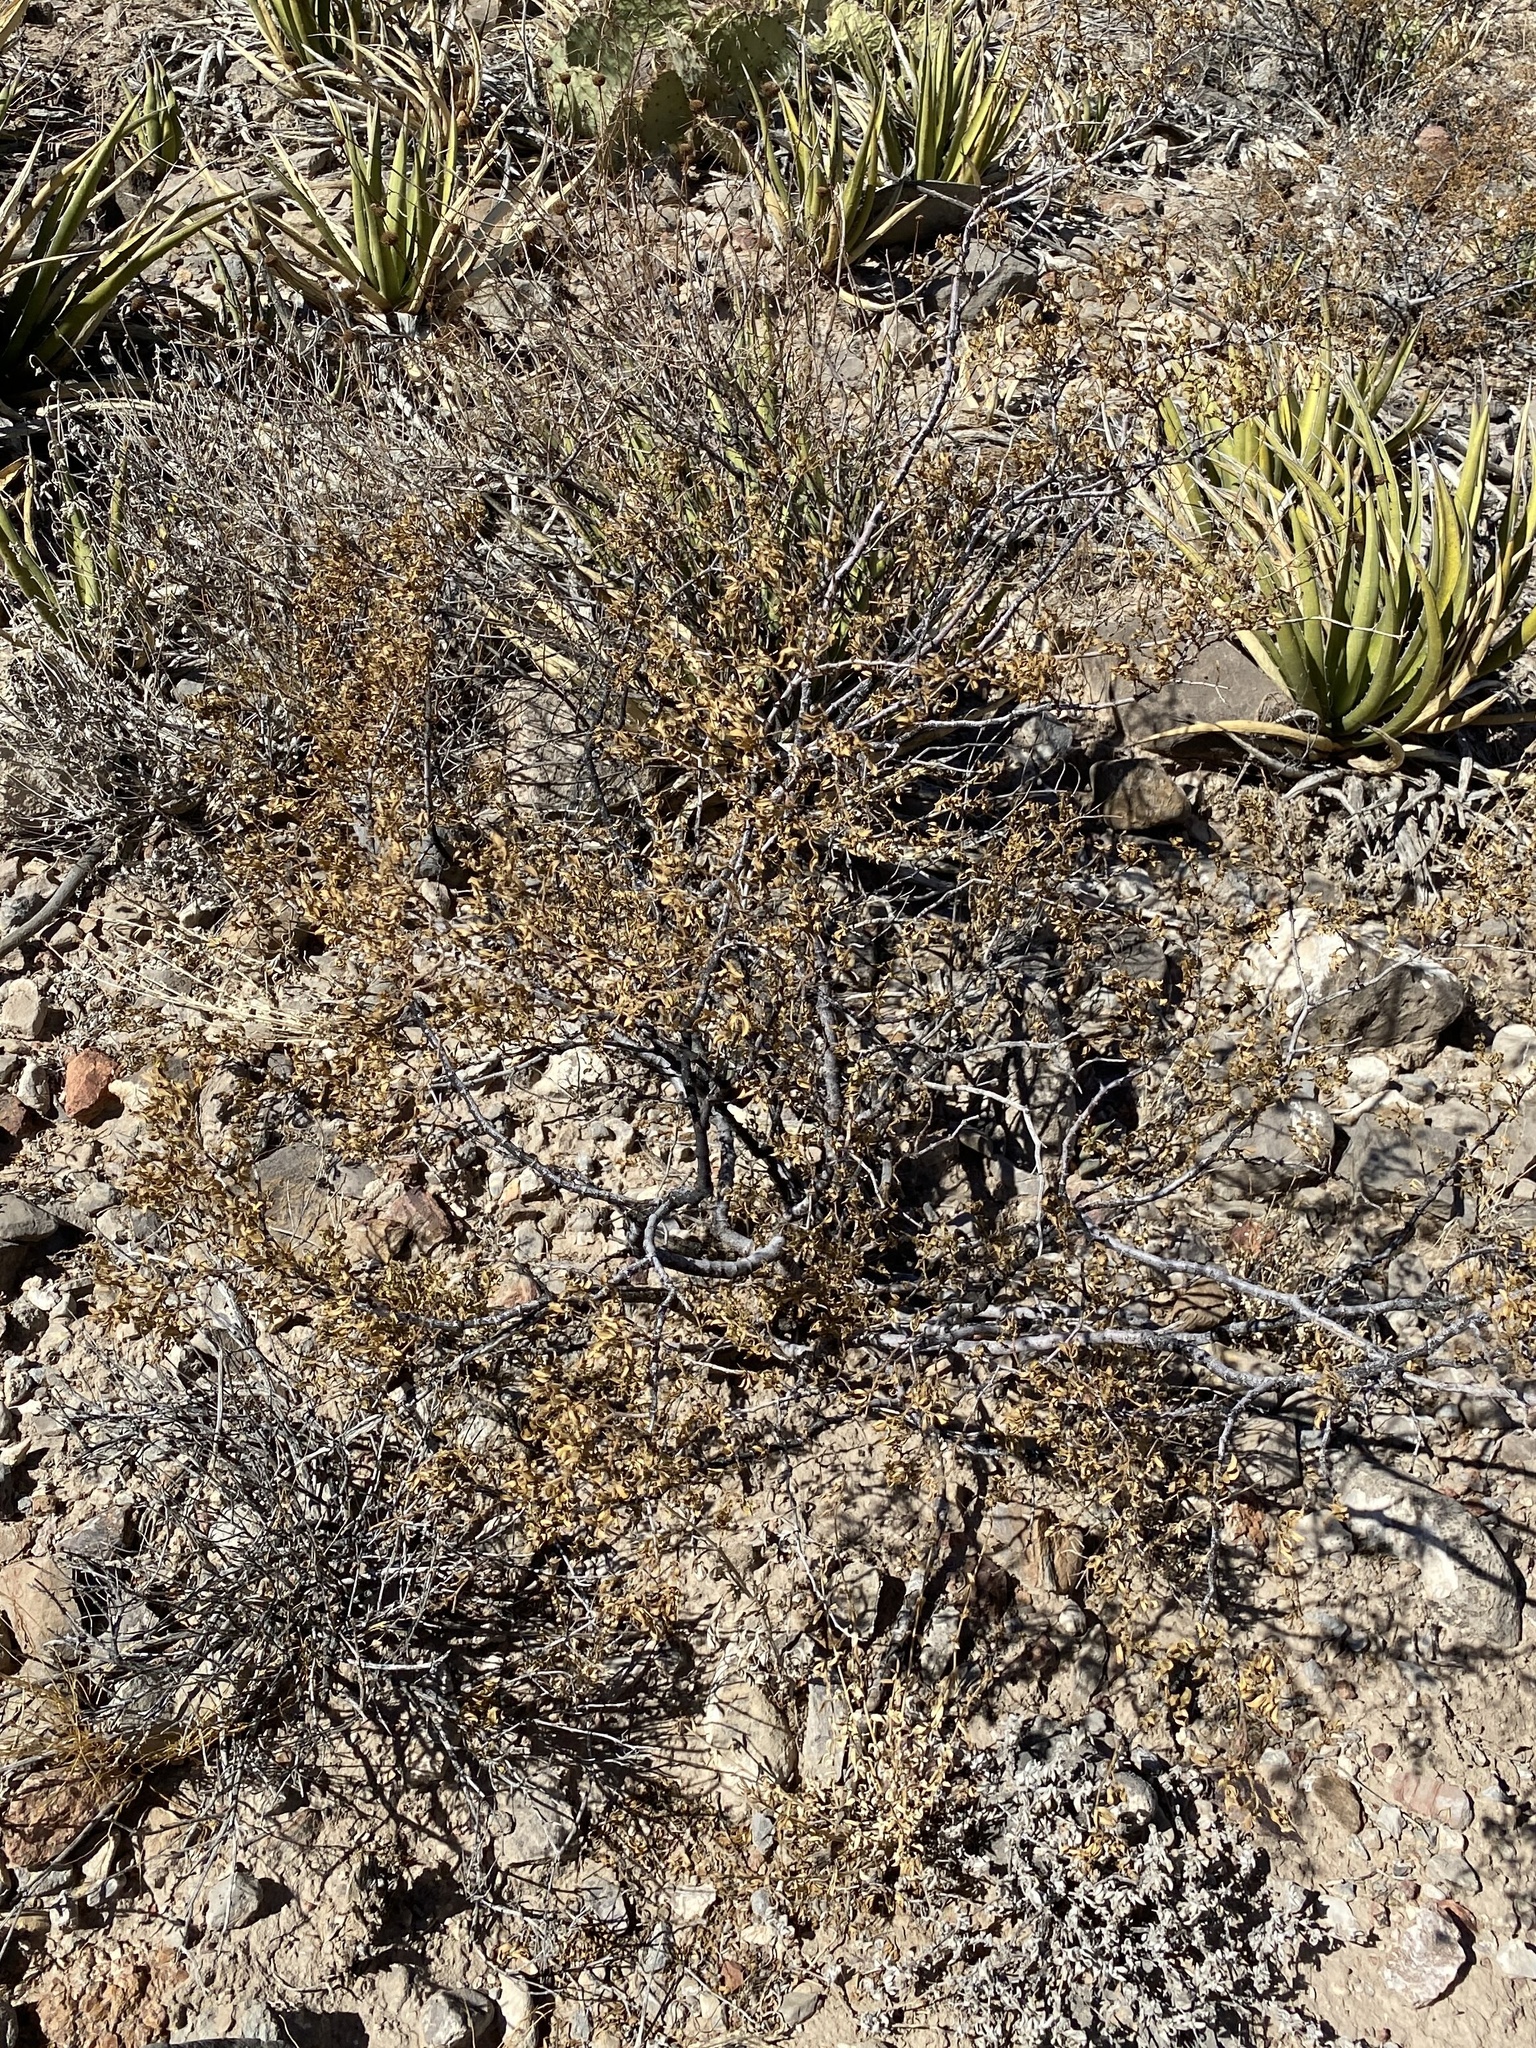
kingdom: Plantae
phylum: Tracheophyta
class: Magnoliopsida
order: Zygophyllales
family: Zygophyllaceae
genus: Larrea
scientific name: Larrea tridentata
